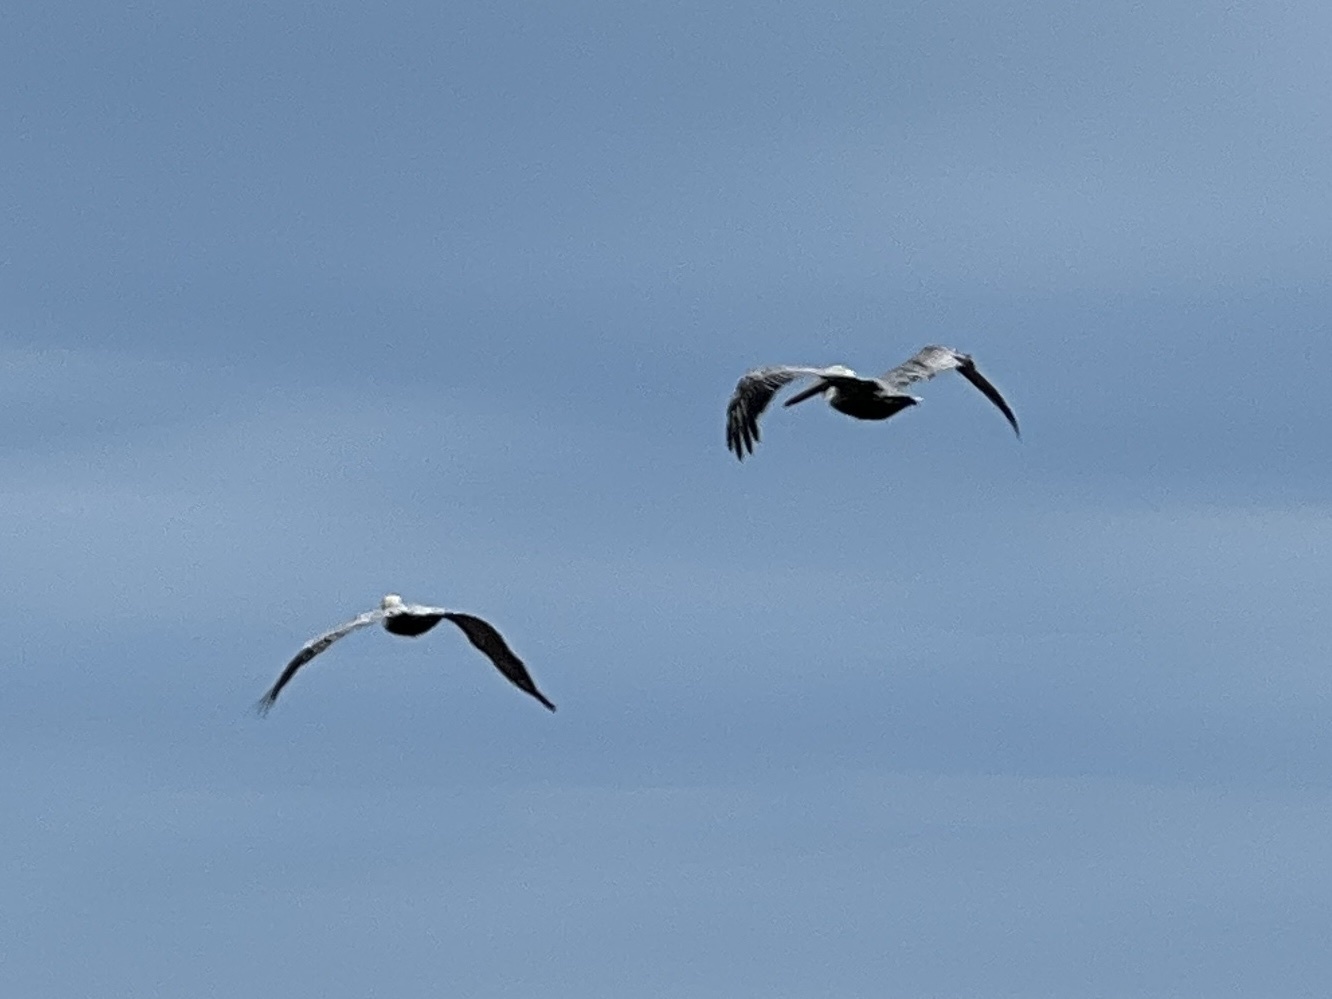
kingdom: Animalia
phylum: Chordata
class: Aves
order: Pelecaniformes
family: Pelecanidae
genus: Pelecanus
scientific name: Pelecanus occidentalis
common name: Brown pelican
